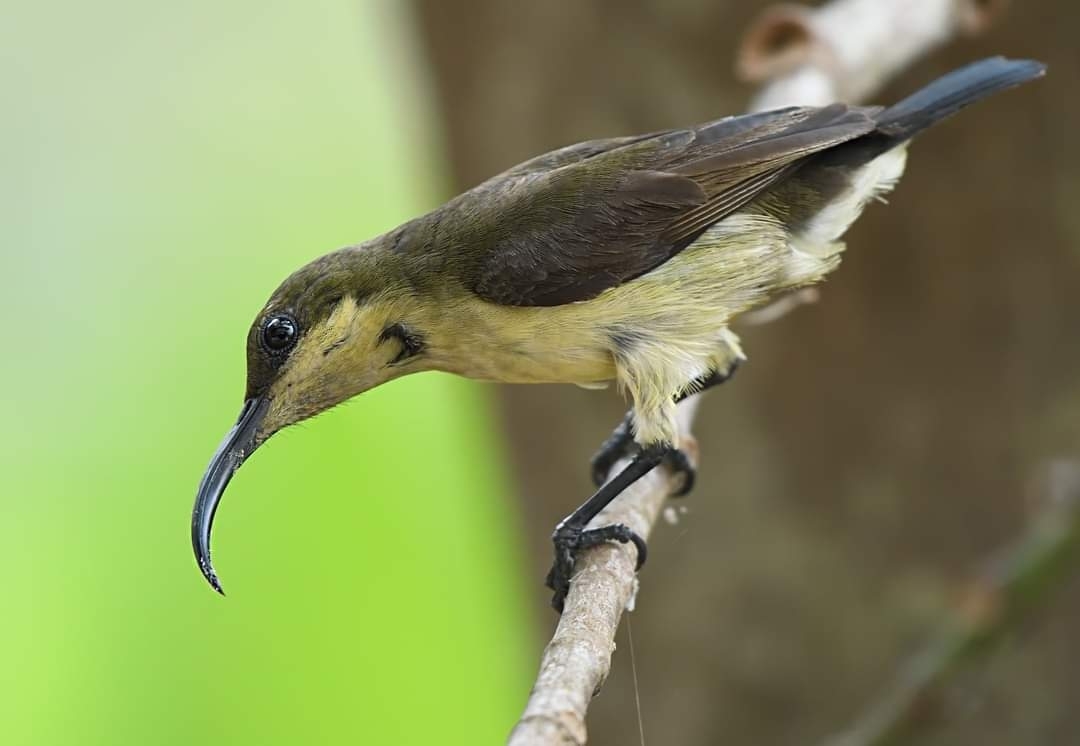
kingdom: Animalia
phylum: Chordata
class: Aves
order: Passeriformes
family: Nectariniidae
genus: Cinnyris
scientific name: Cinnyris lotenius
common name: Loten's sunbird
